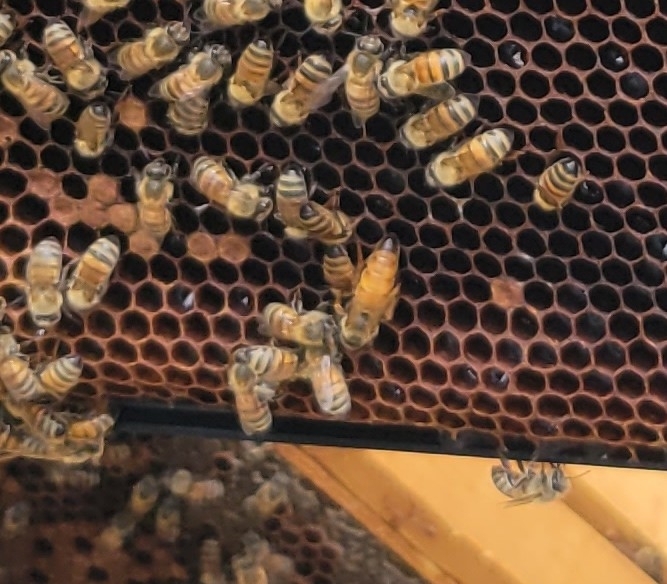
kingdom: Animalia
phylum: Arthropoda
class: Insecta
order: Hymenoptera
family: Apidae
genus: Apis
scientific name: Apis mellifera
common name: Honey bee
